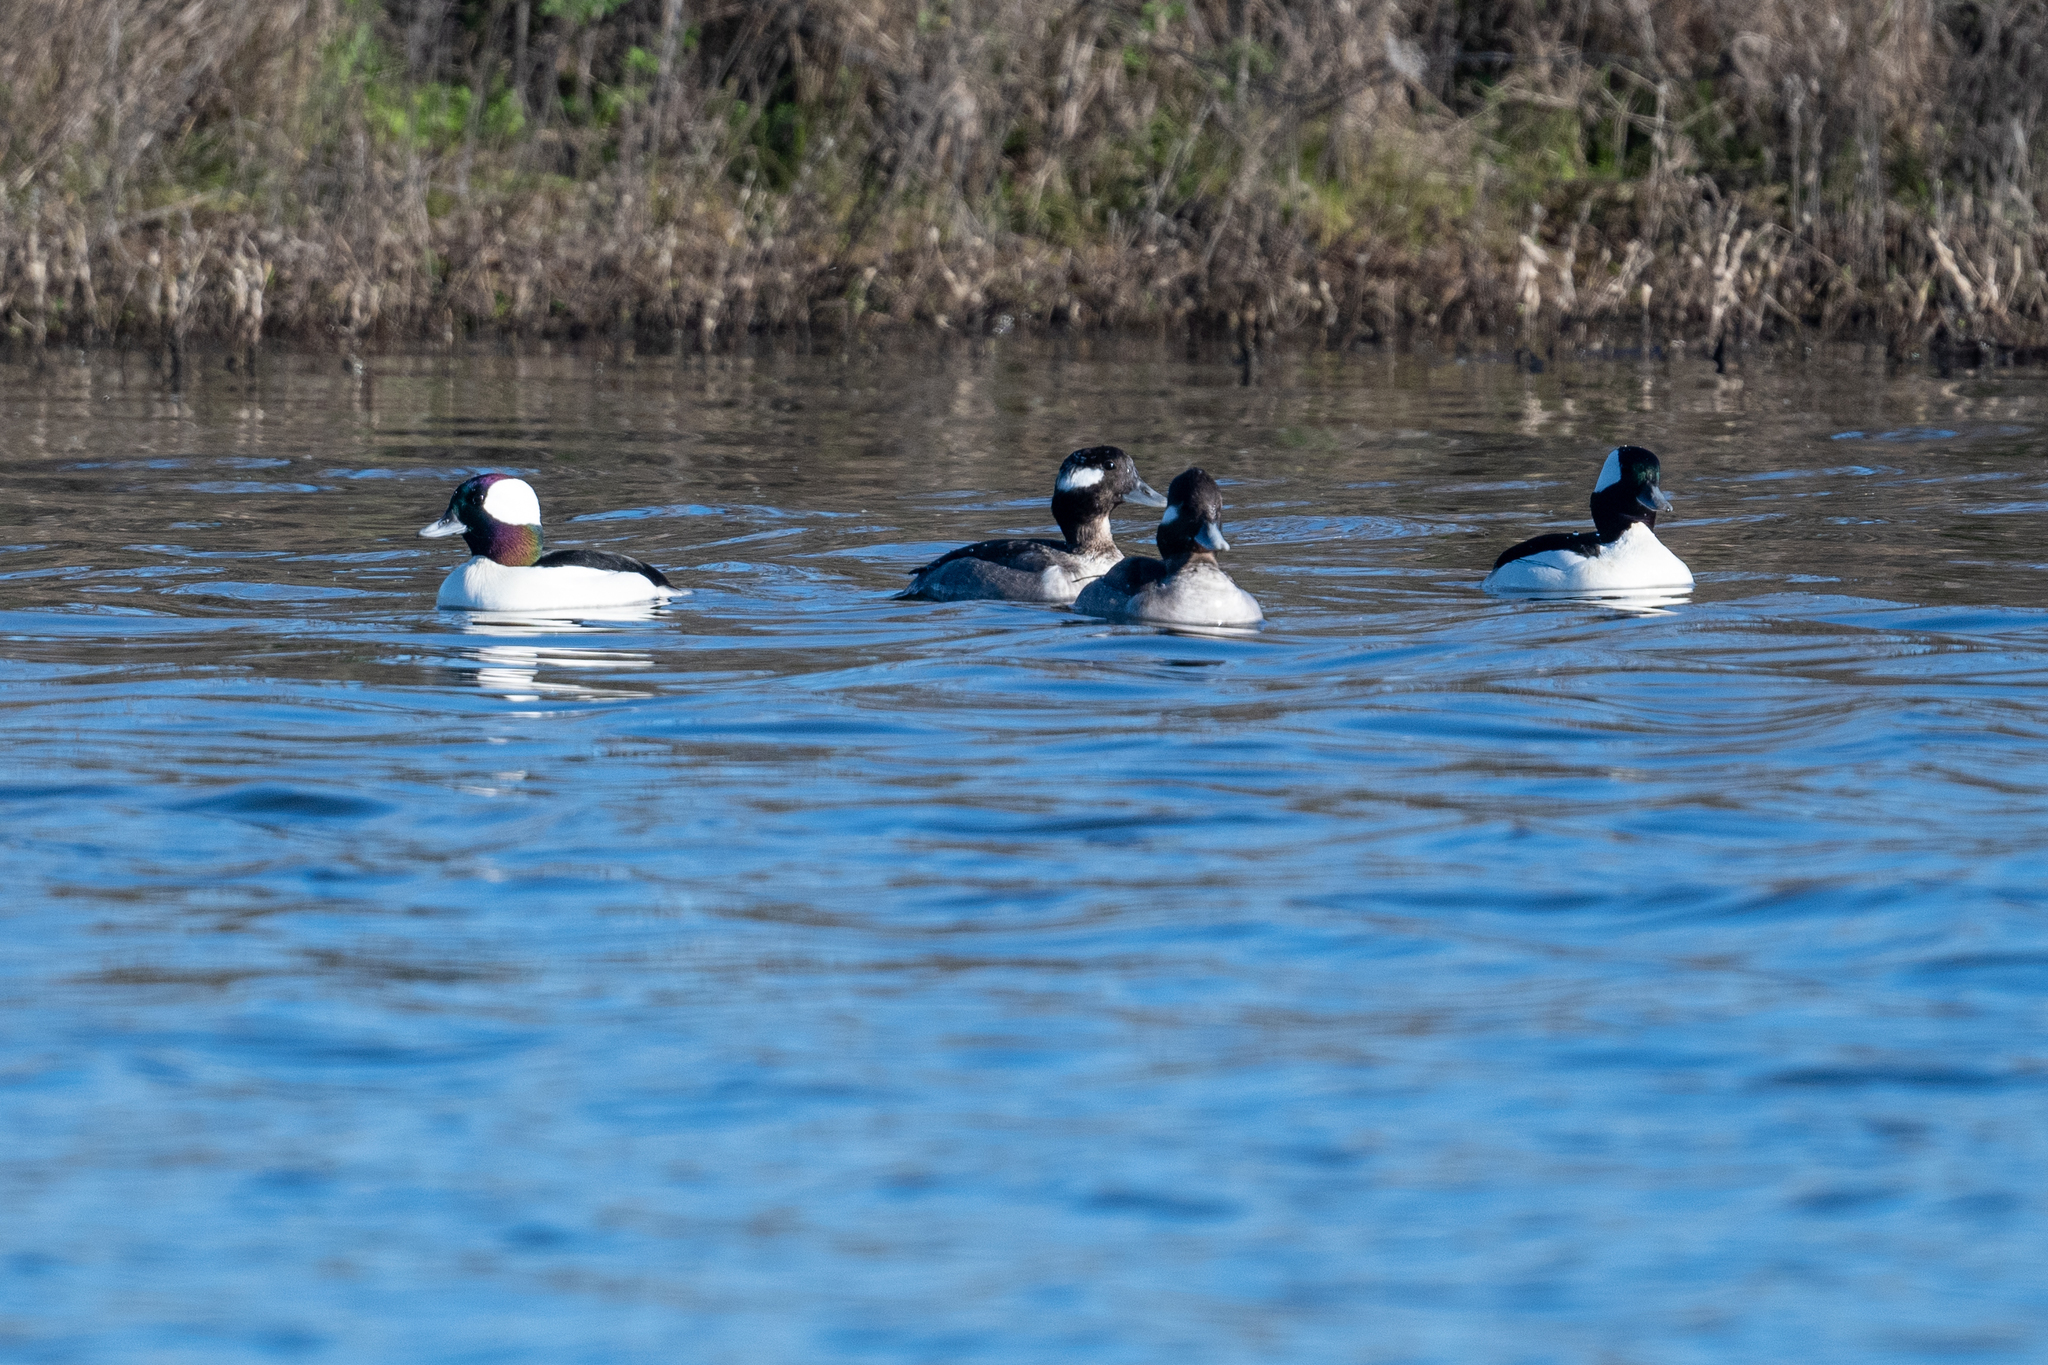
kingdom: Animalia
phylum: Chordata
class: Aves
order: Anseriformes
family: Anatidae
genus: Bucephala
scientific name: Bucephala albeola
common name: Bufflehead
